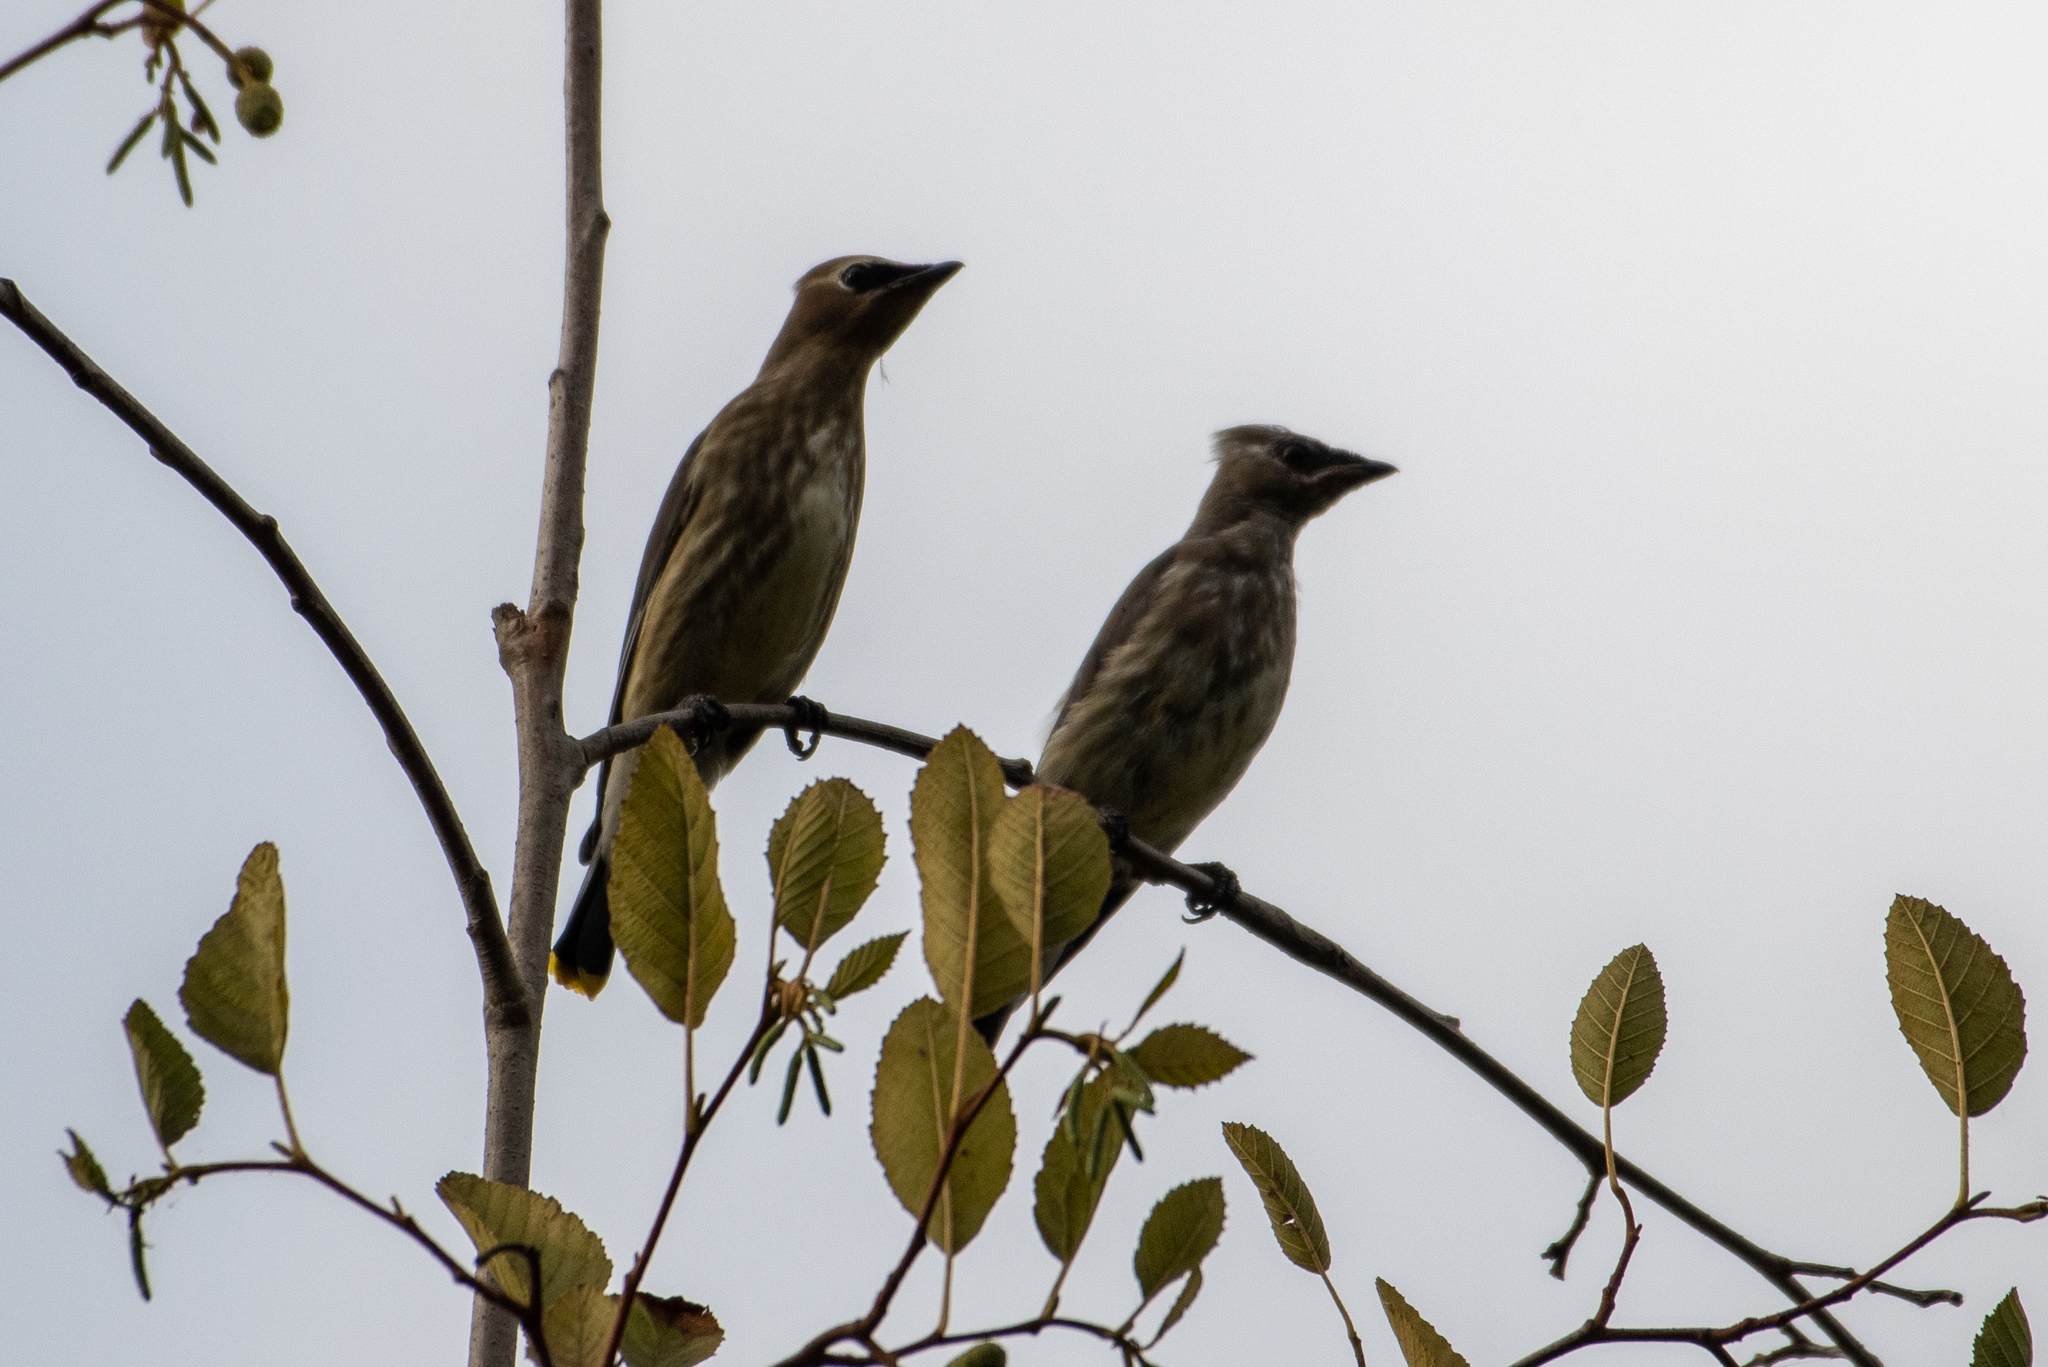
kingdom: Animalia
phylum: Chordata
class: Aves
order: Passeriformes
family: Bombycillidae
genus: Bombycilla
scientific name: Bombycilla cedrorum
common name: Cedar waxwing
